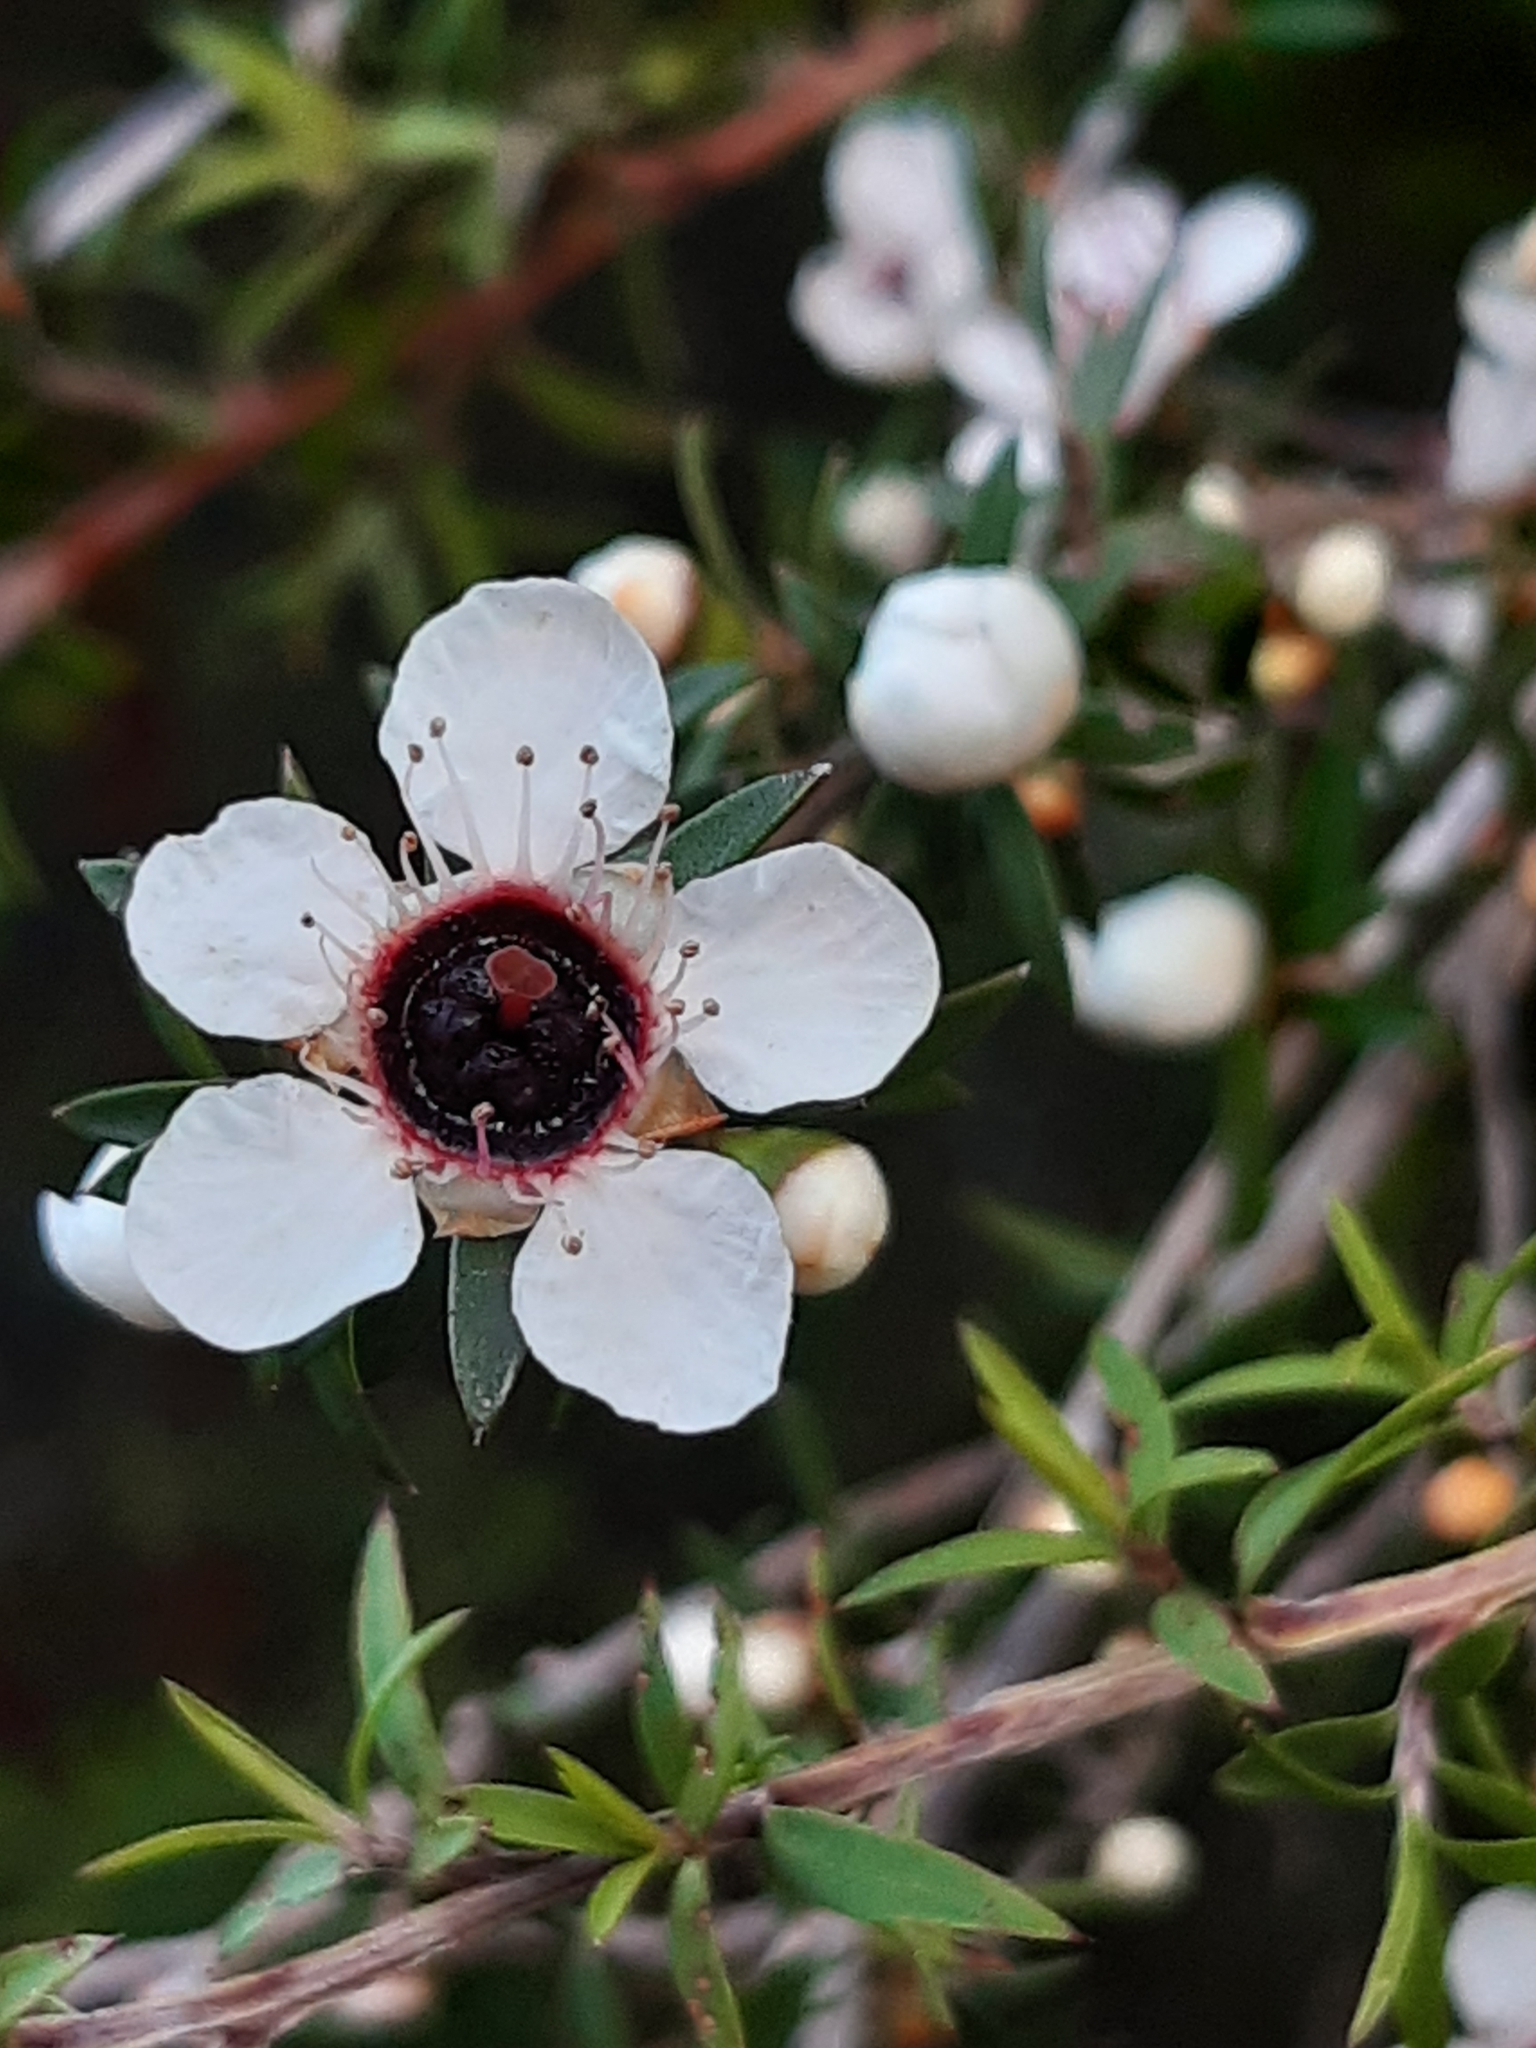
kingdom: Plantae
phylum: Tracheophyta
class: Magnoliopsida
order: Myrtales
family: Myrtaceae
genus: Leptospermum
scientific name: Leptospermum scoparium
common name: Broom tea-tree
